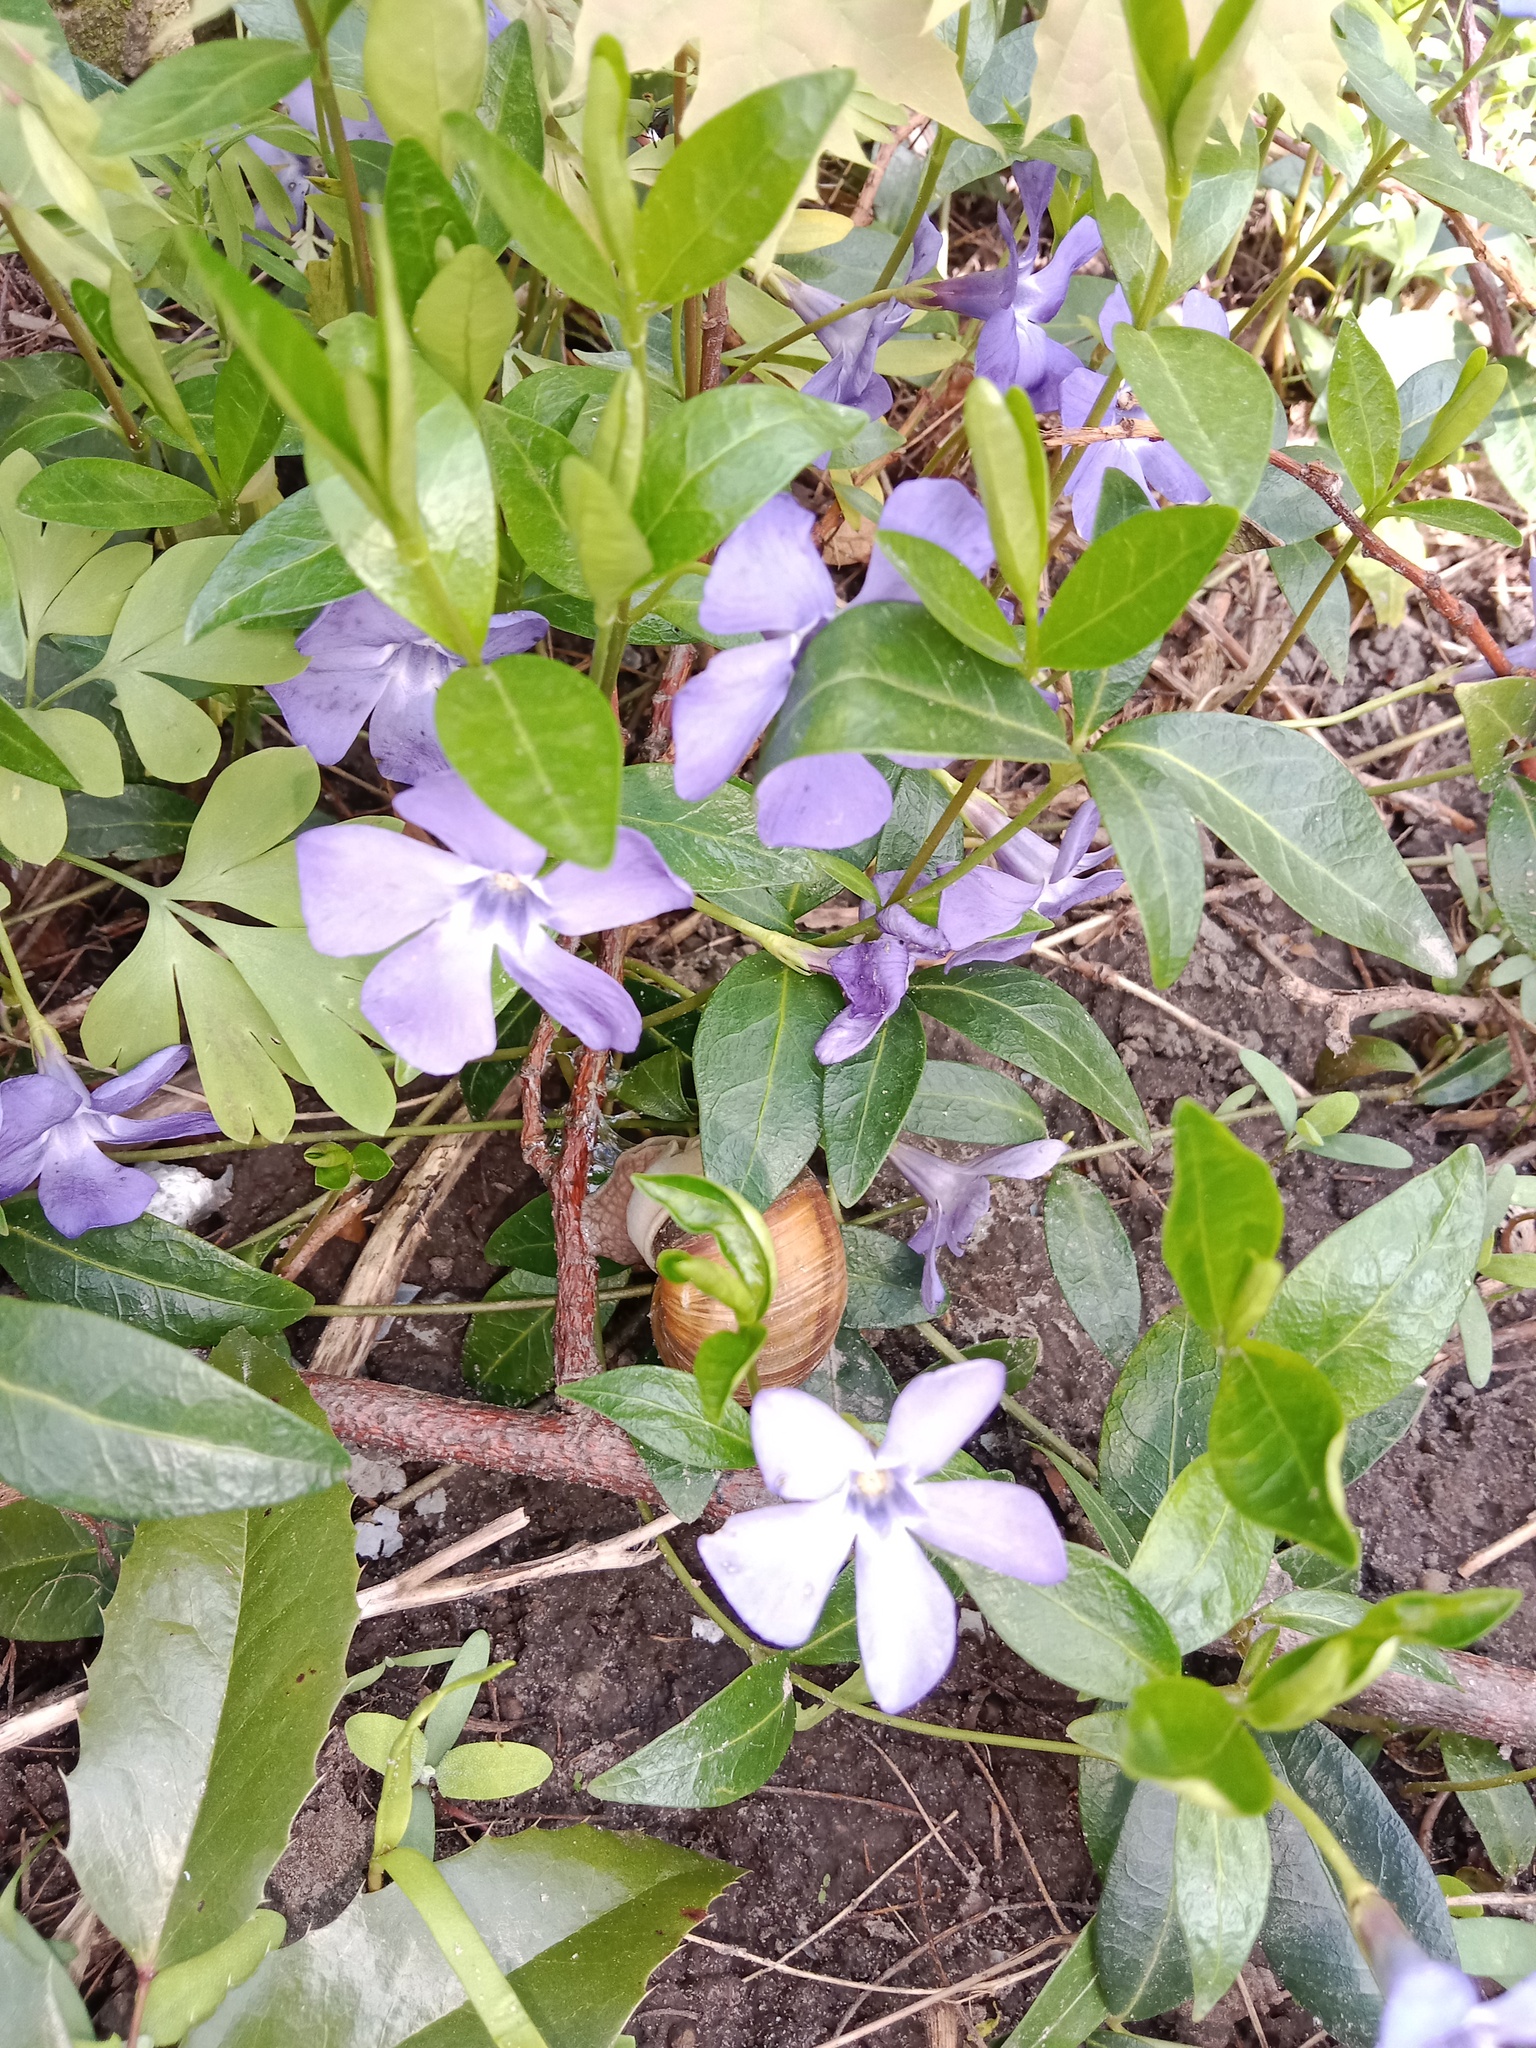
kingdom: Plantae
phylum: Tracheophyta
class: Magnoliopsida
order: Gentianales
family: Apocynaceae
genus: Vinca
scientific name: Vinca minor
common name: Lesser periwinkle
